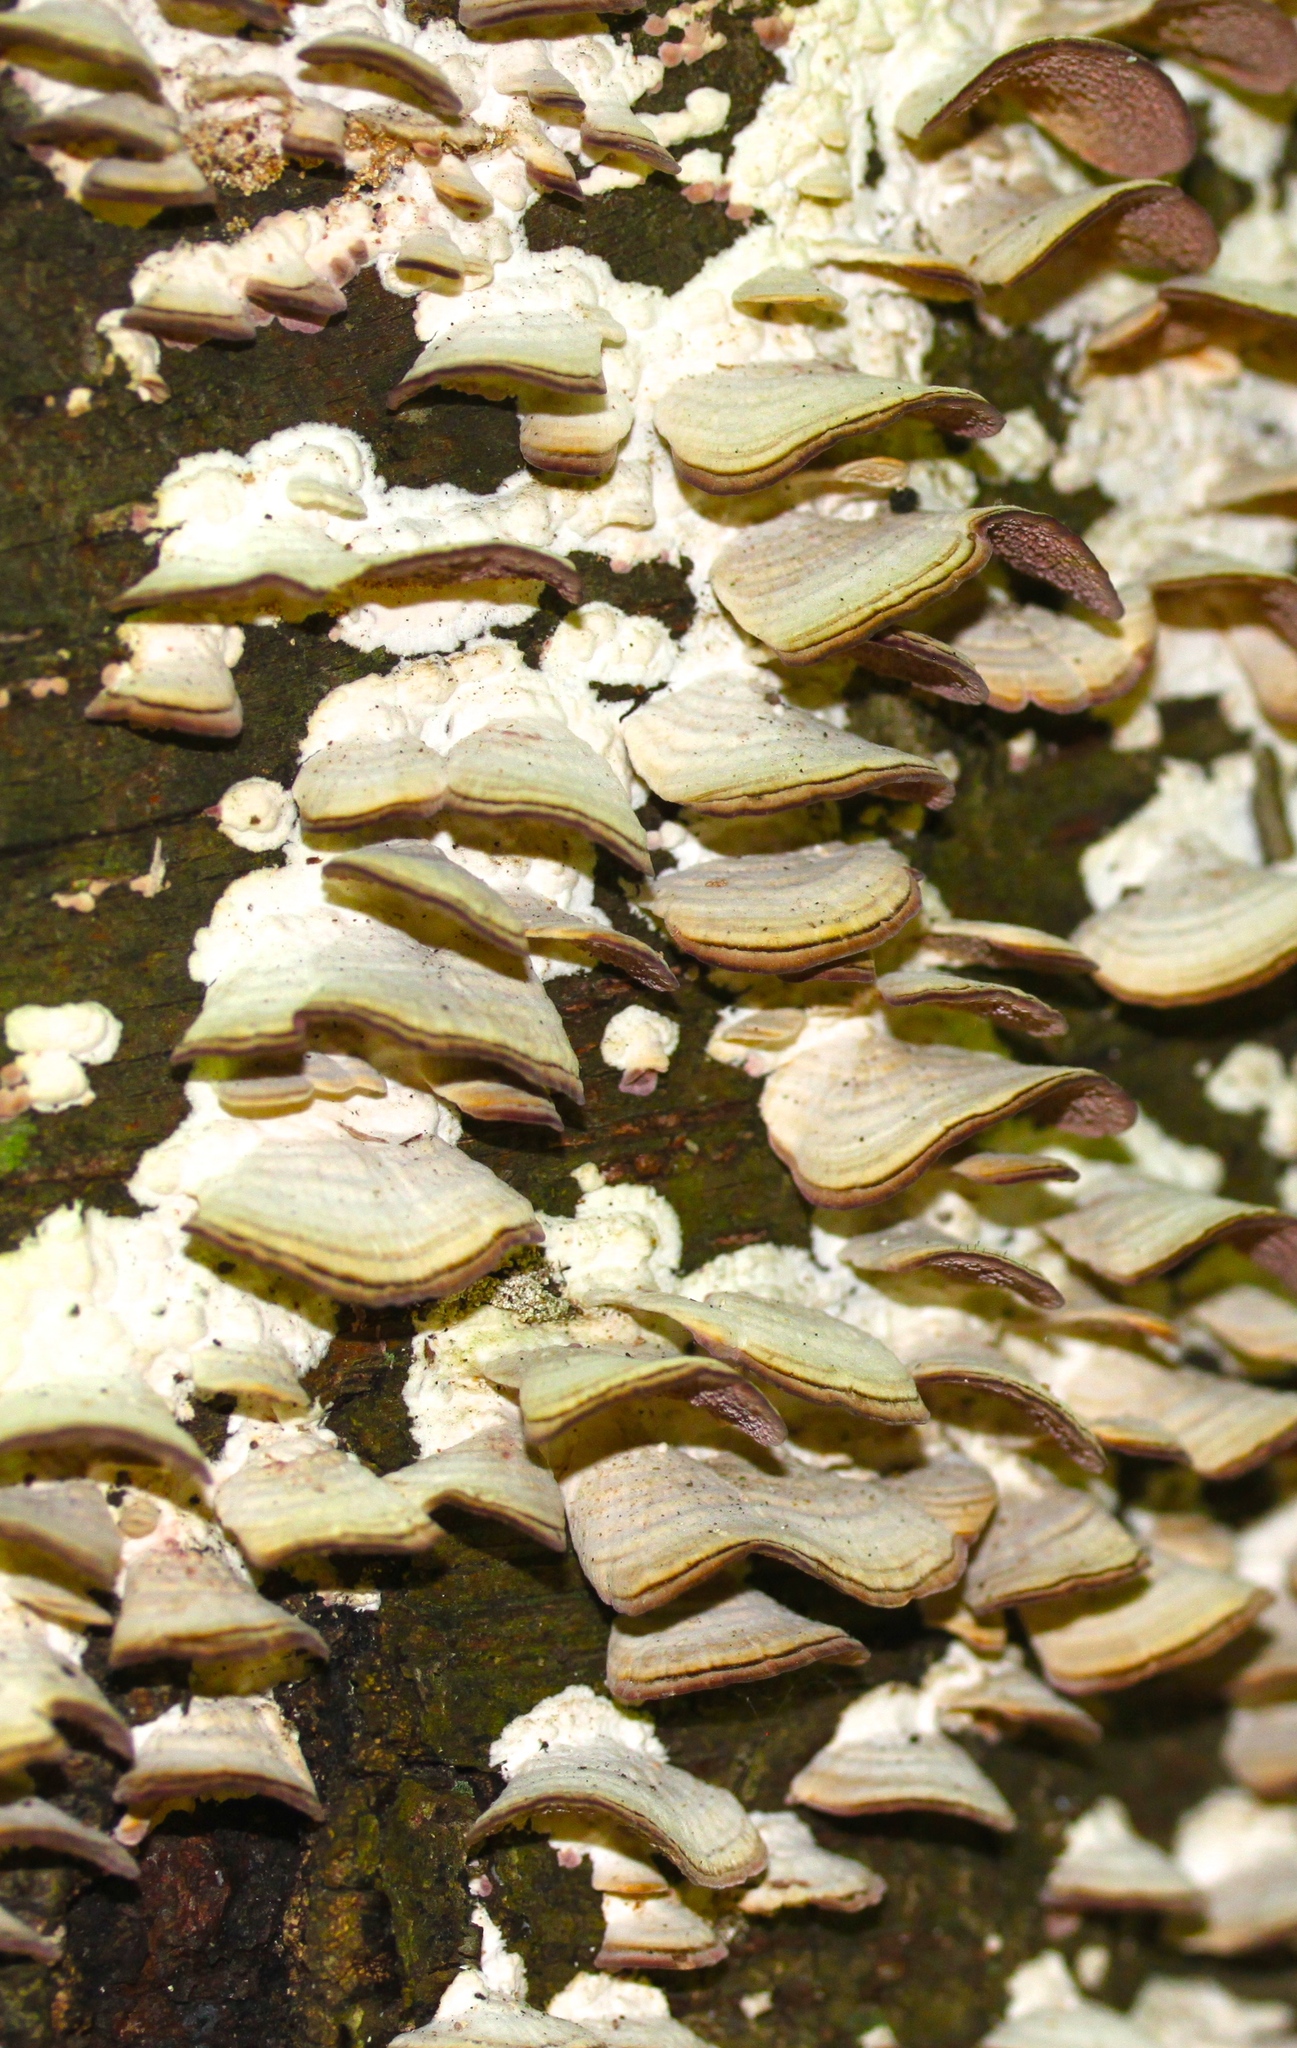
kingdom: Fungi
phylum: Basidiomycota
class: Agaricomycetes
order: Hymenochaetales
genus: Trichaptum
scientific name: Trichaptum biforme
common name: Violet-toothed polypore
